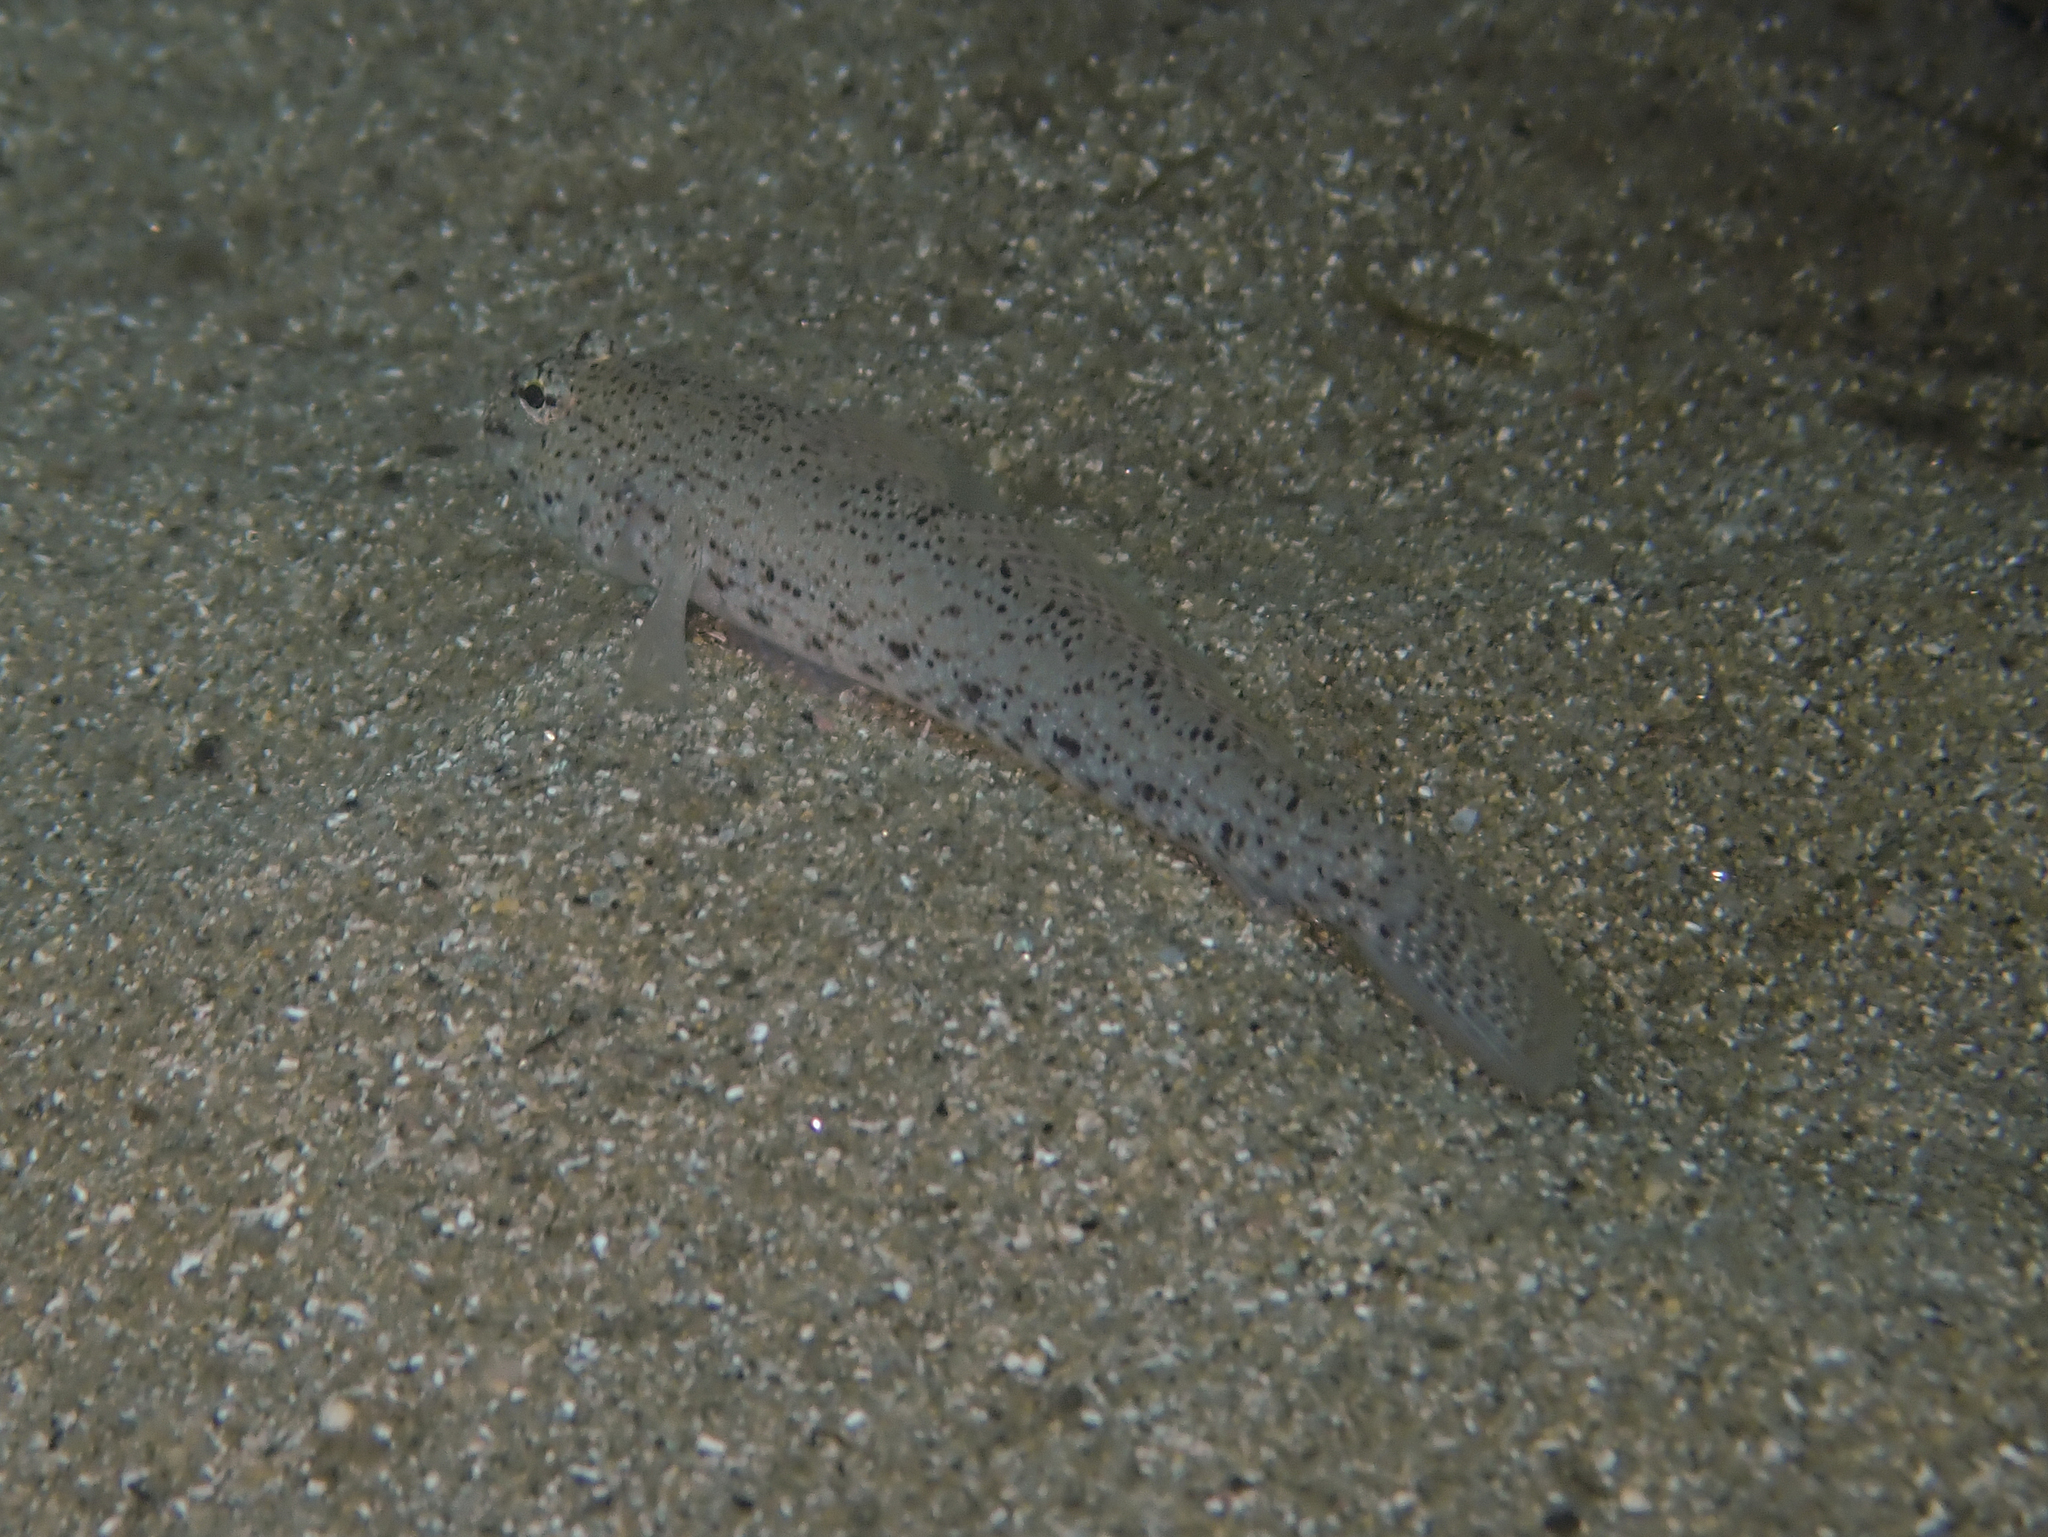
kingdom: Animalia
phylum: Chordata
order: Perciformes
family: Gobiidae
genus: Gobius
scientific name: Gobius incognitus
